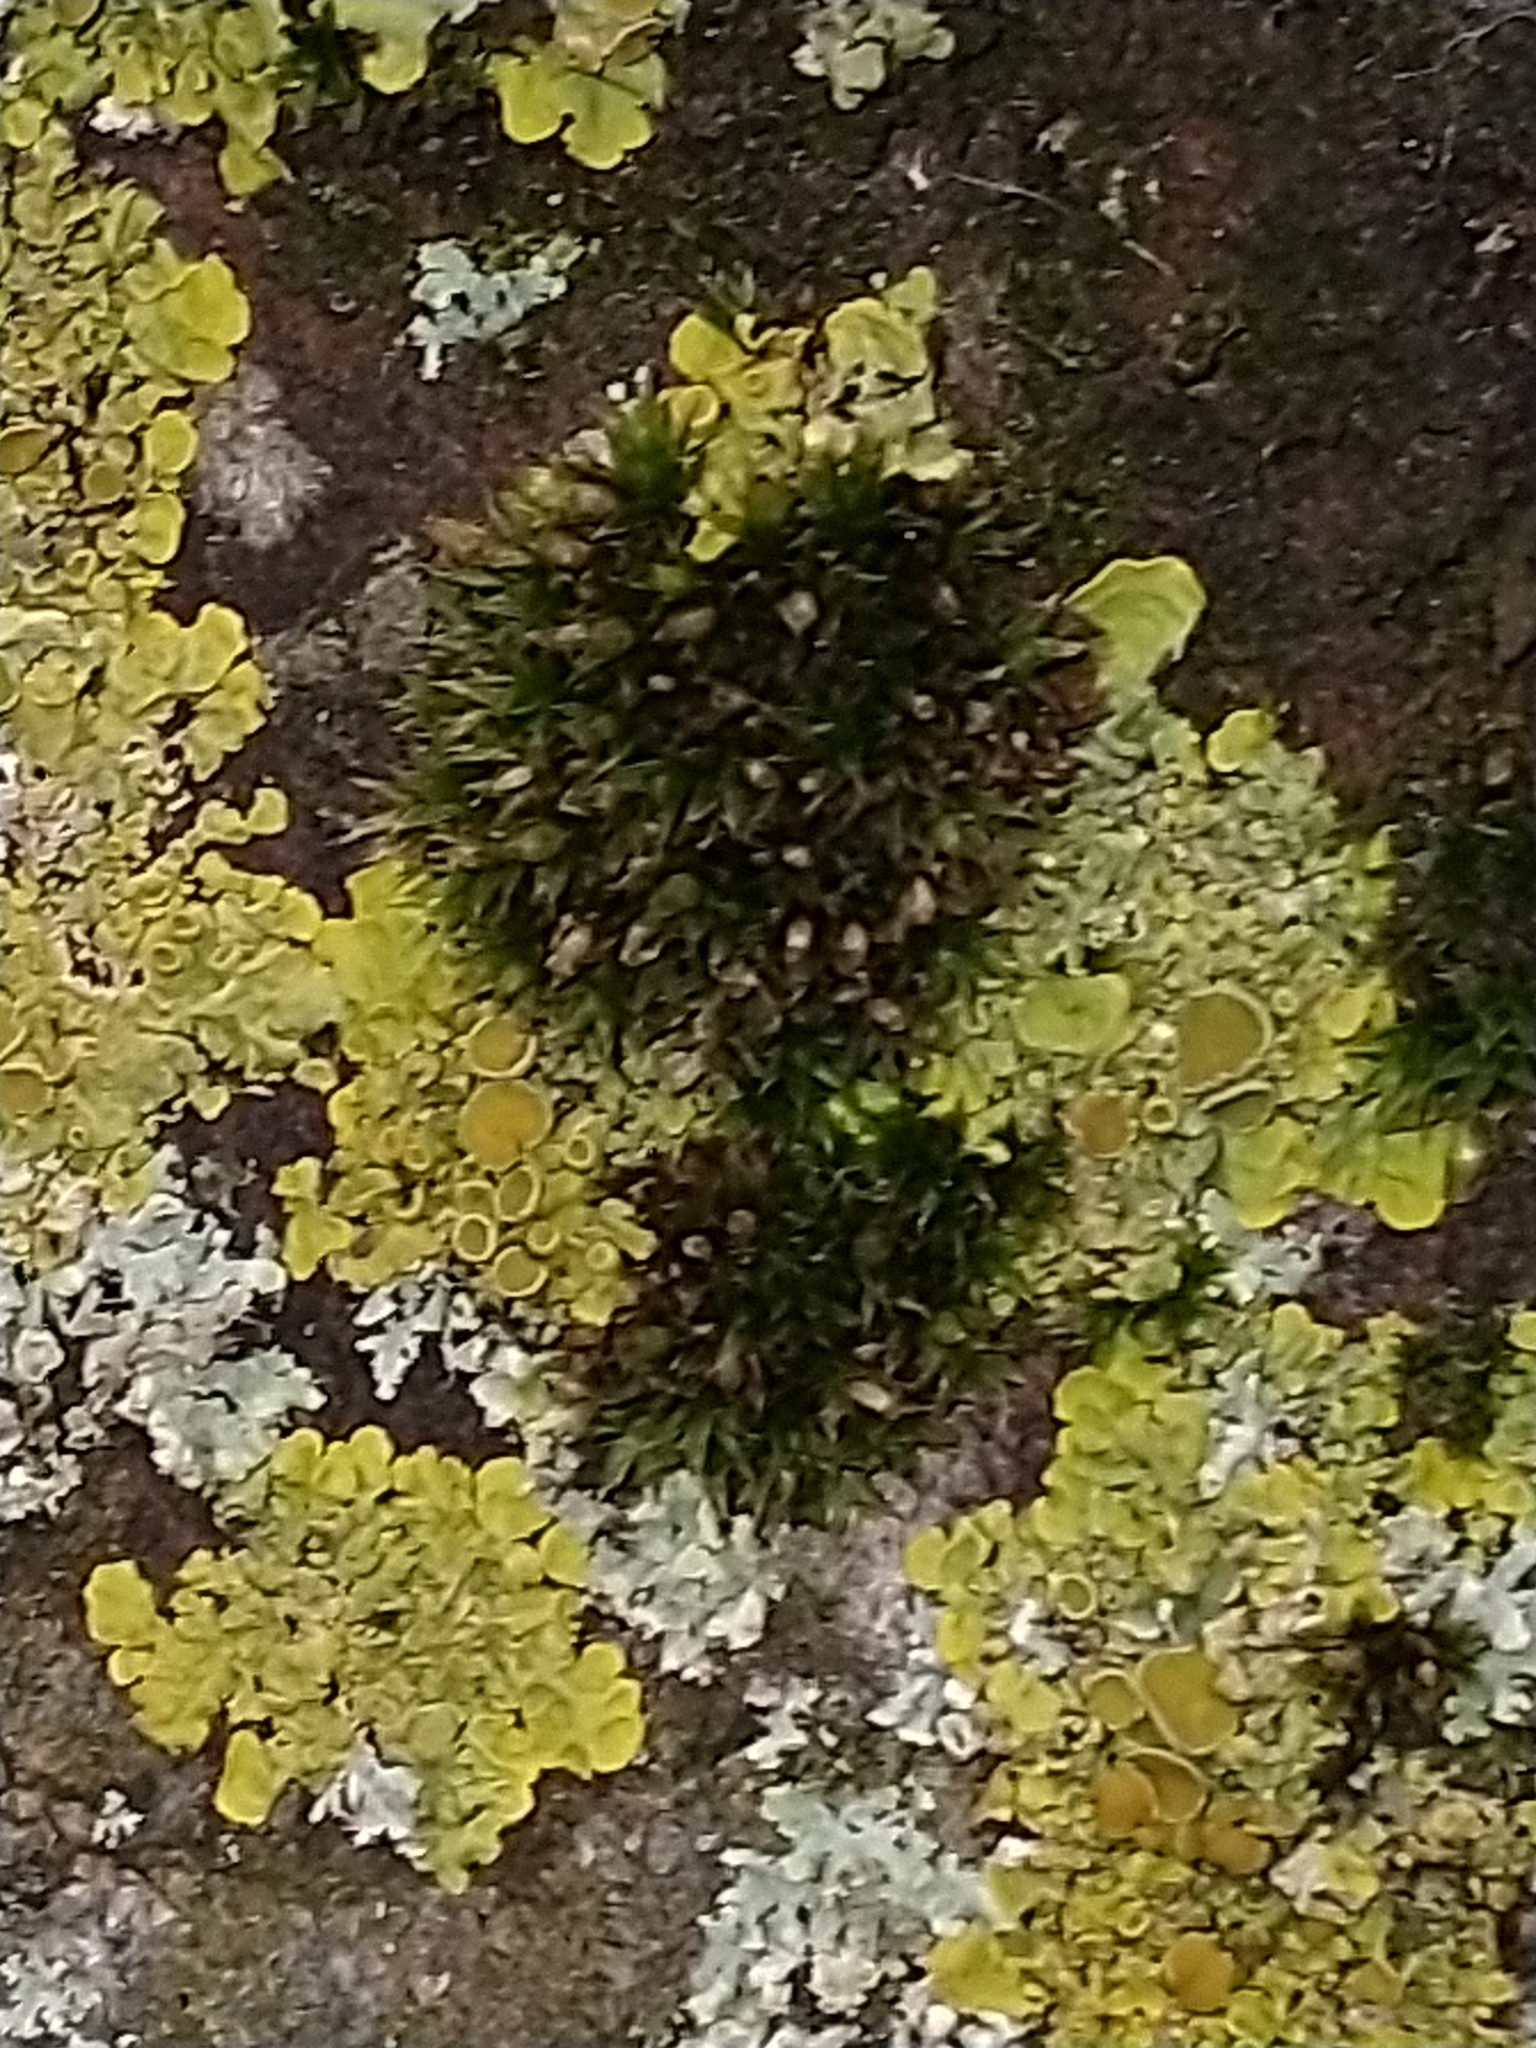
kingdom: Plantae
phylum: Bryophyta
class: Bryopsida
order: Orthotrichales
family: Orthotrichaceae
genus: Orthotrichum
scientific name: Orthotrichum diaphanum
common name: White-tipped bristle-moss
